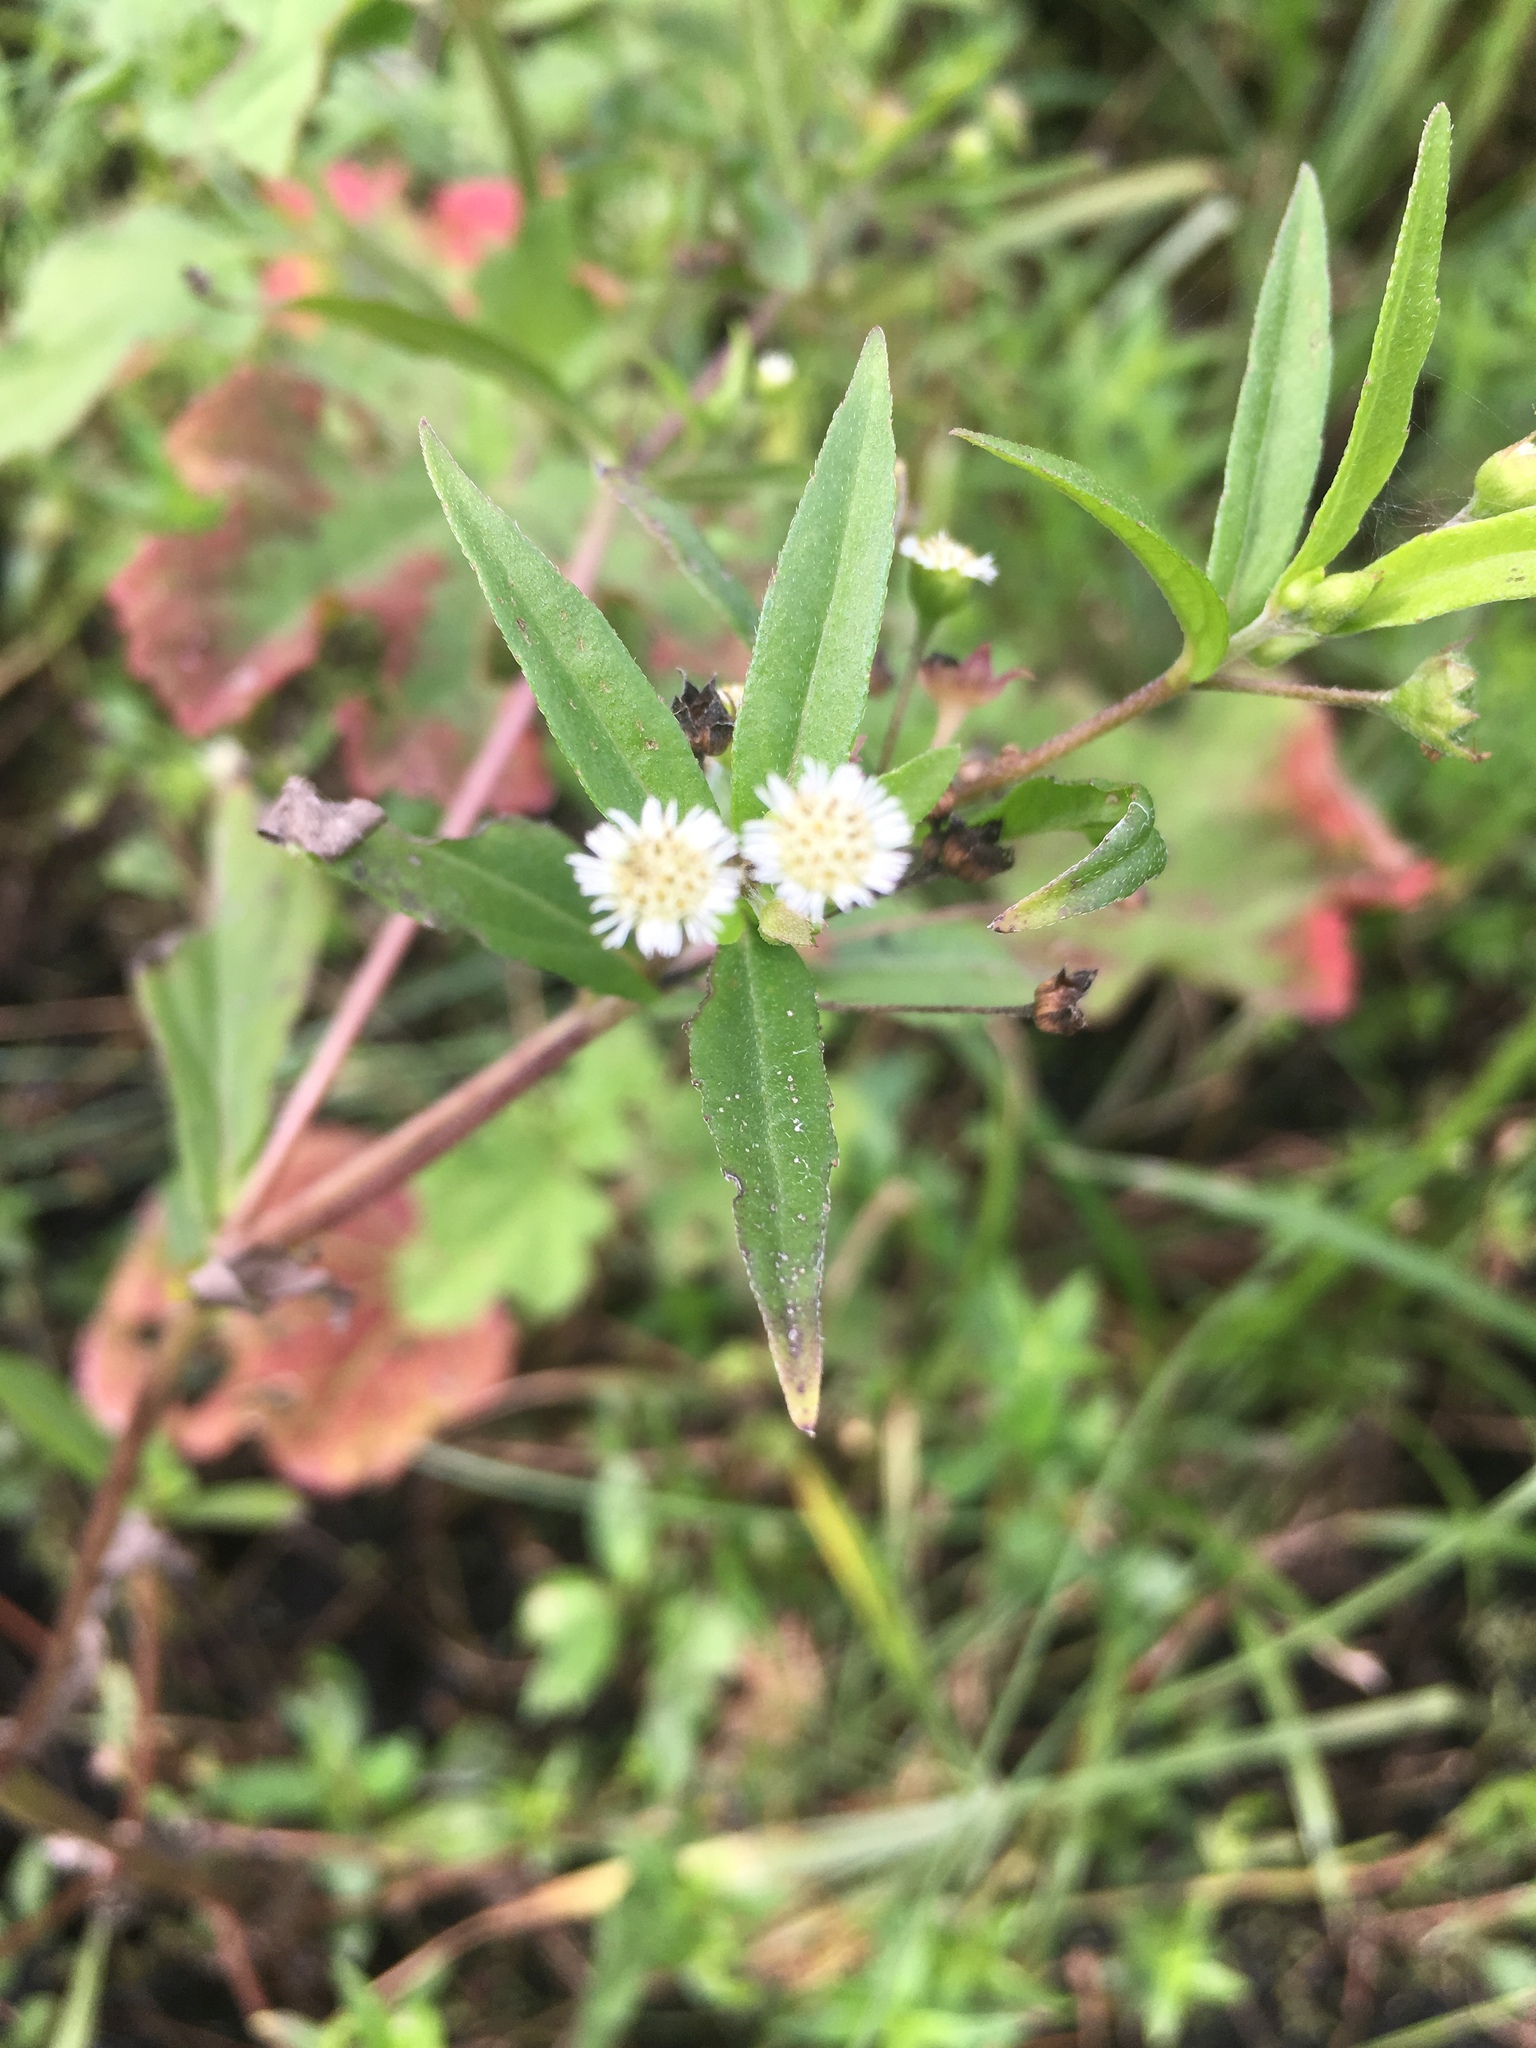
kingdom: Plantae
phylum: Tracheophyta
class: Magnoliopsida
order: Asterales
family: Asteraceae
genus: Eclipta
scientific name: Eclipta prostrata
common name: False daisy
